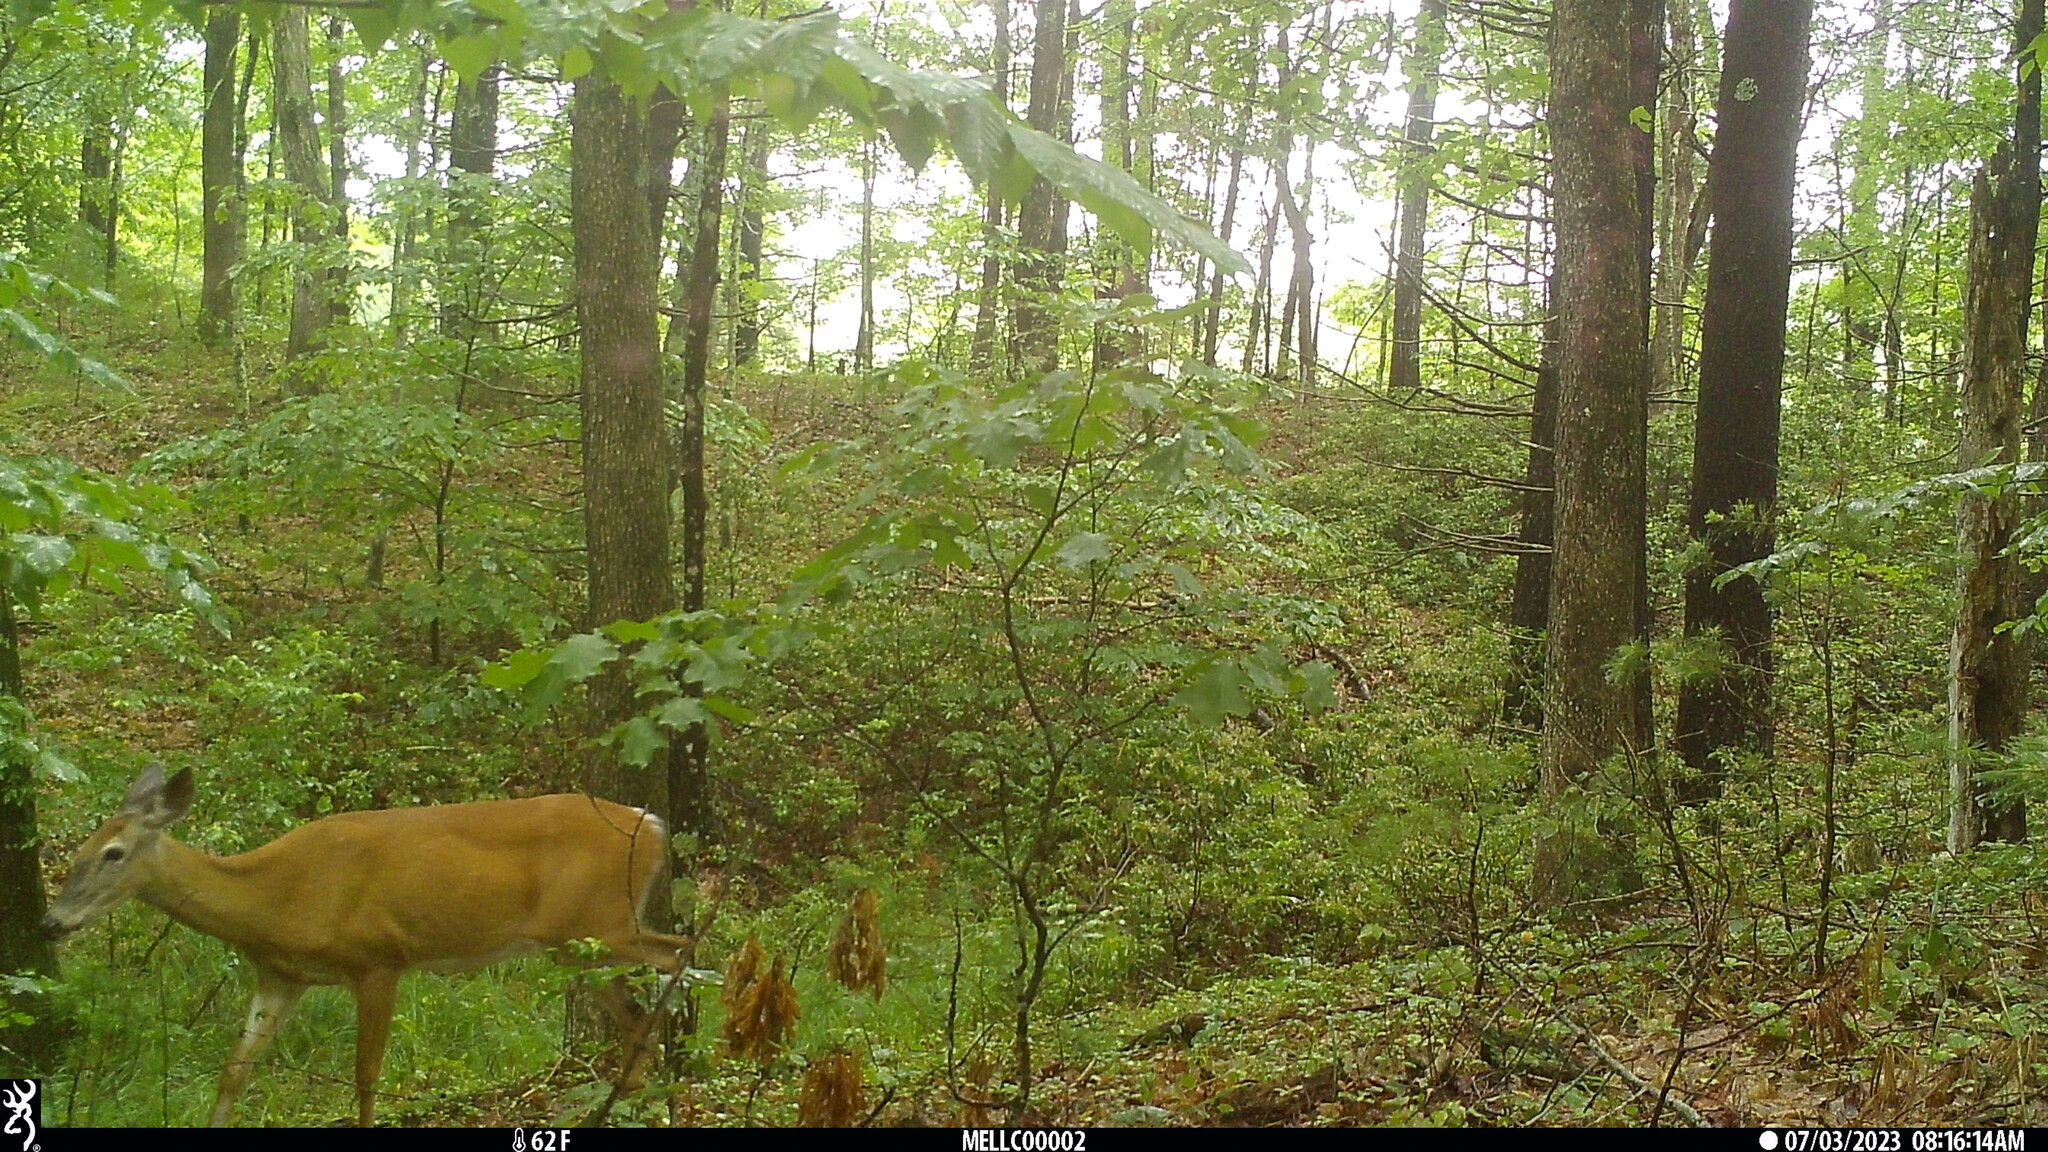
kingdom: Animalia
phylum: Chordata
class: Mammalia
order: Artiodactyla
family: Cervidae
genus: Odocoileus
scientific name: Odocoileus virginianus
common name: White-tailed deer
